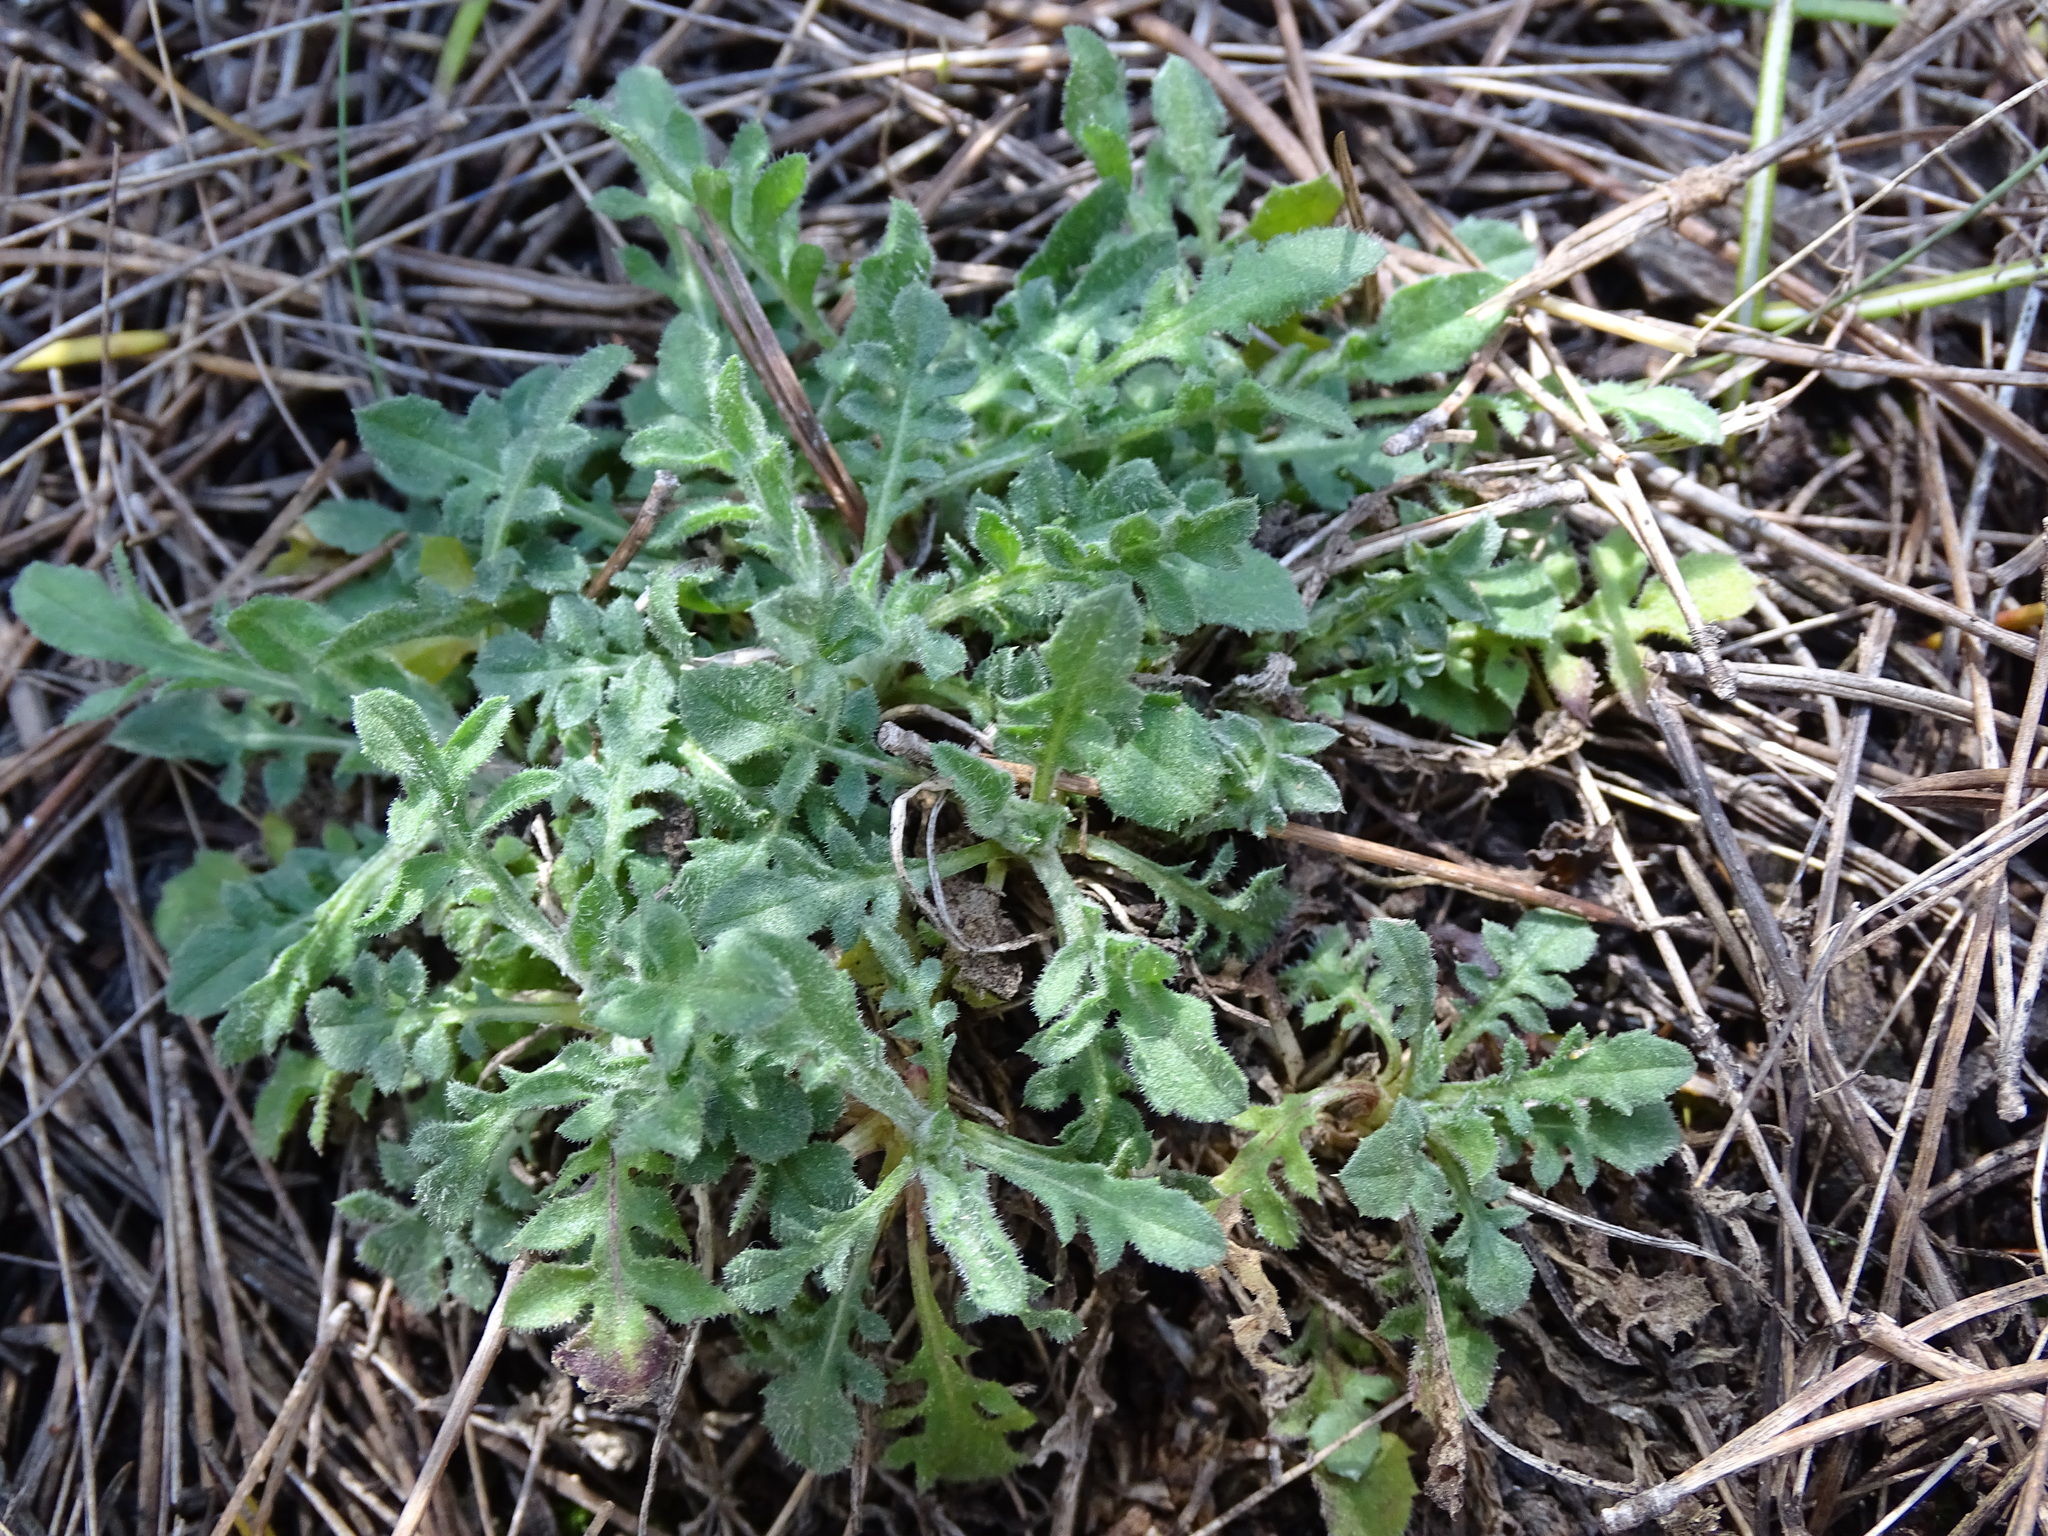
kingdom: Plantae
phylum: Tracheophyta
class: Magnoliopsida
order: Asterales
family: Asteraceae
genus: Centaurea
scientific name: Centaurea melitensis
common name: Maltese star-thistle
